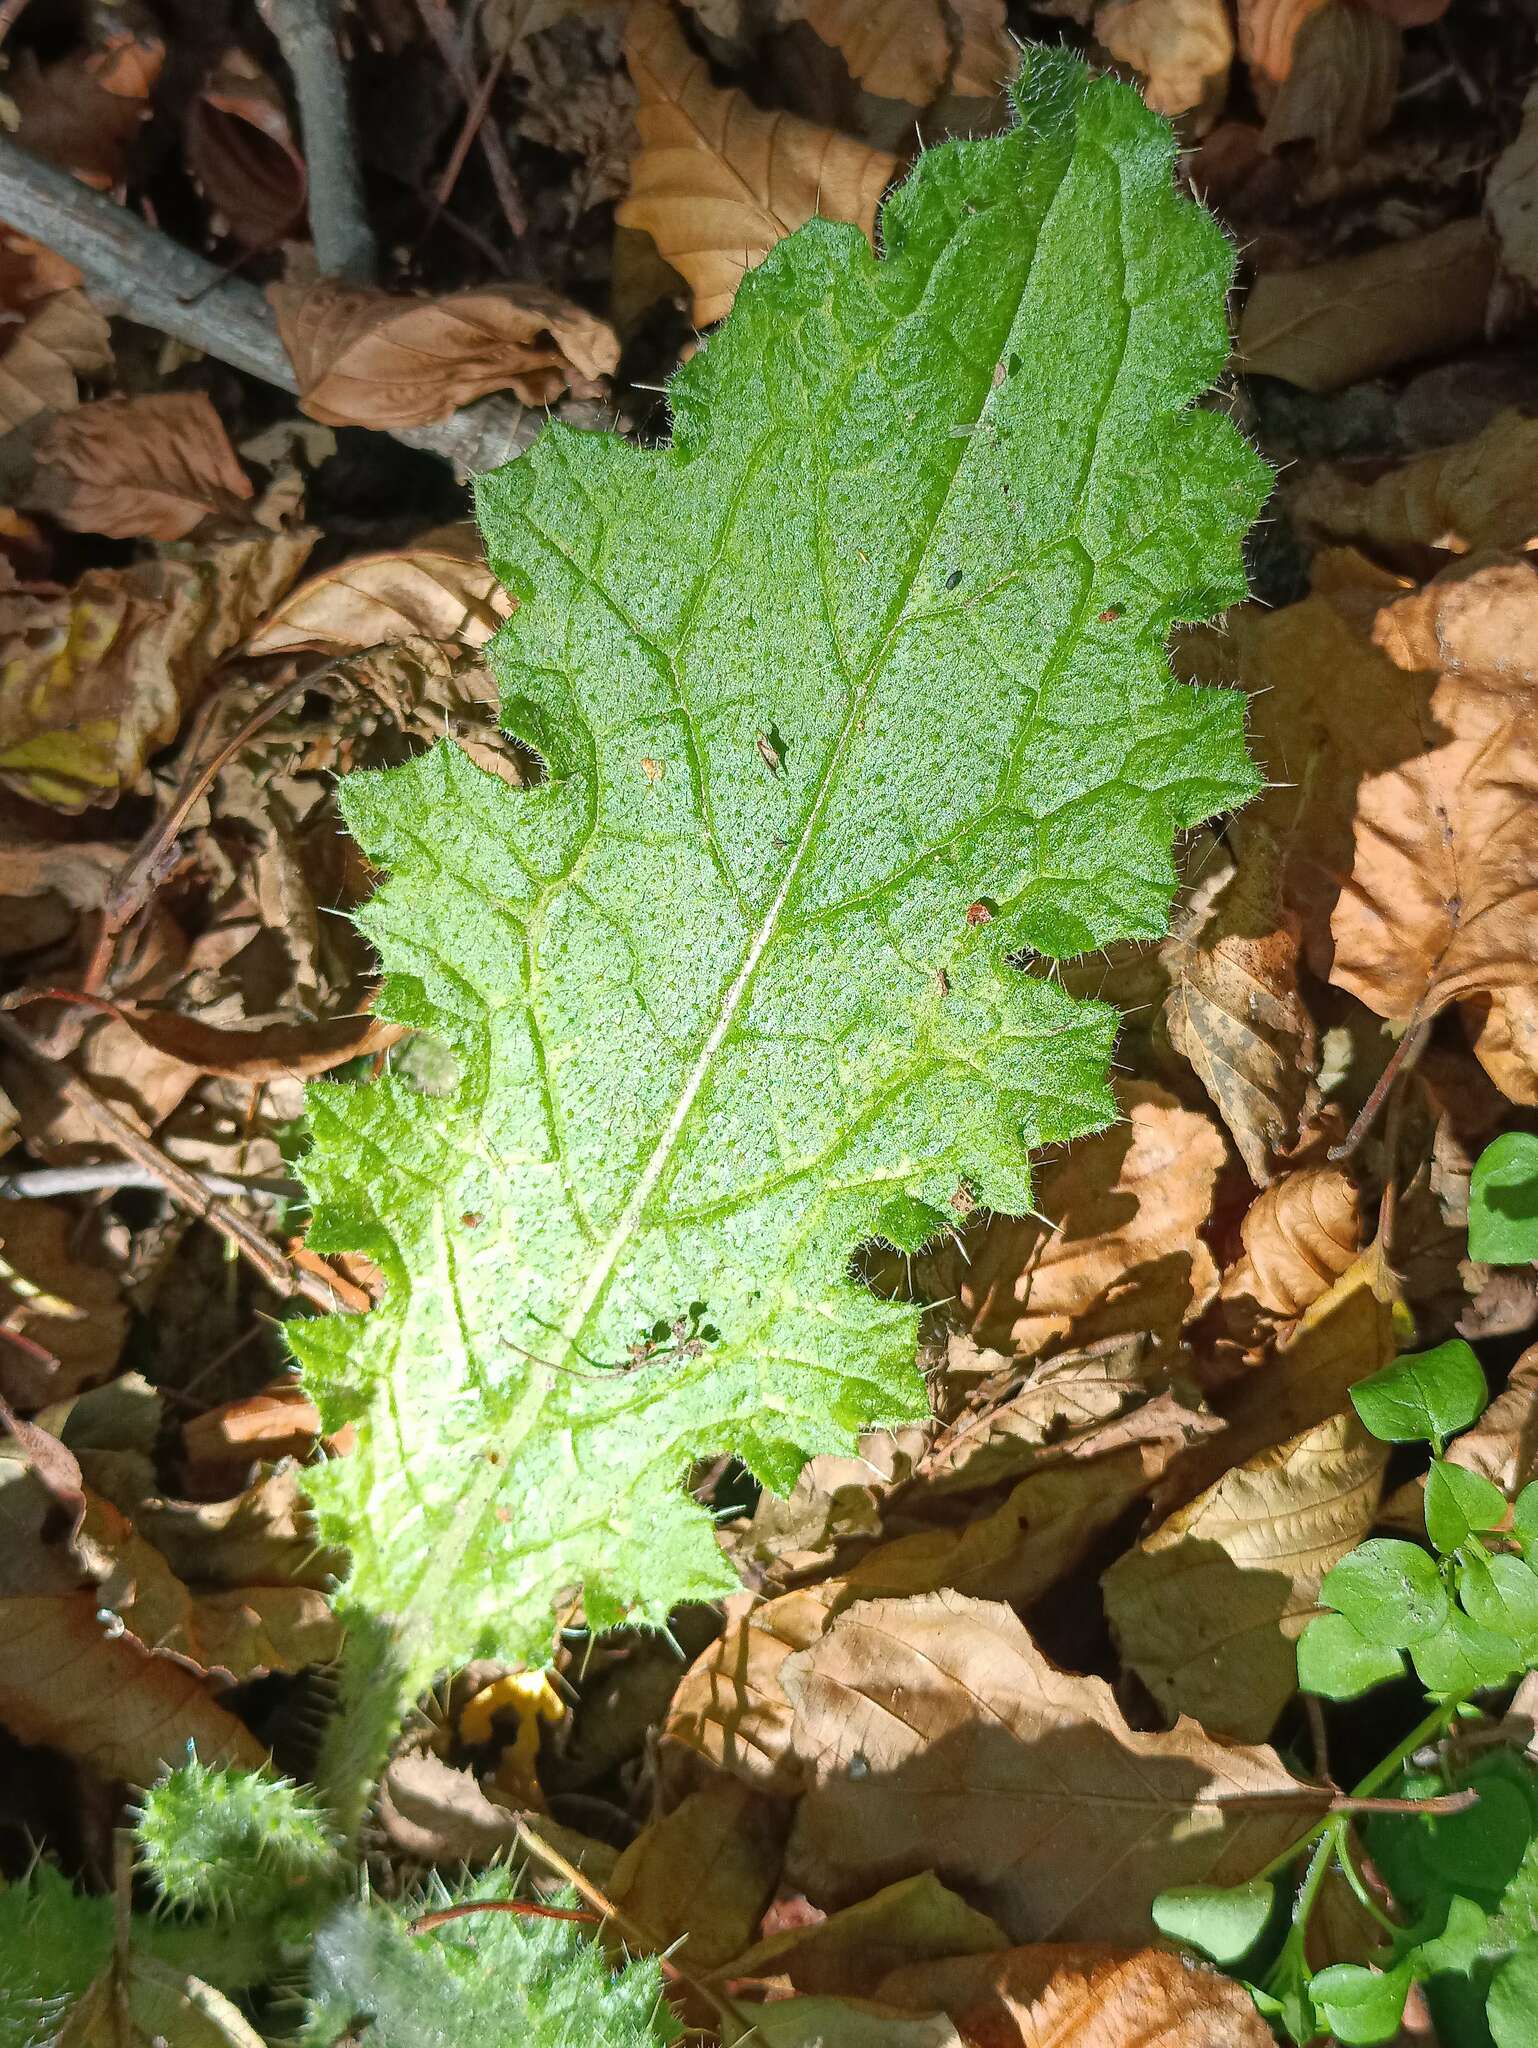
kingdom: Plantae
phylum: Tracheophyta
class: Magnoliopsida
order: Asterales
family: Asteraceae
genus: Cirsium
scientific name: Cirsium vulgare
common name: Bull thistle
